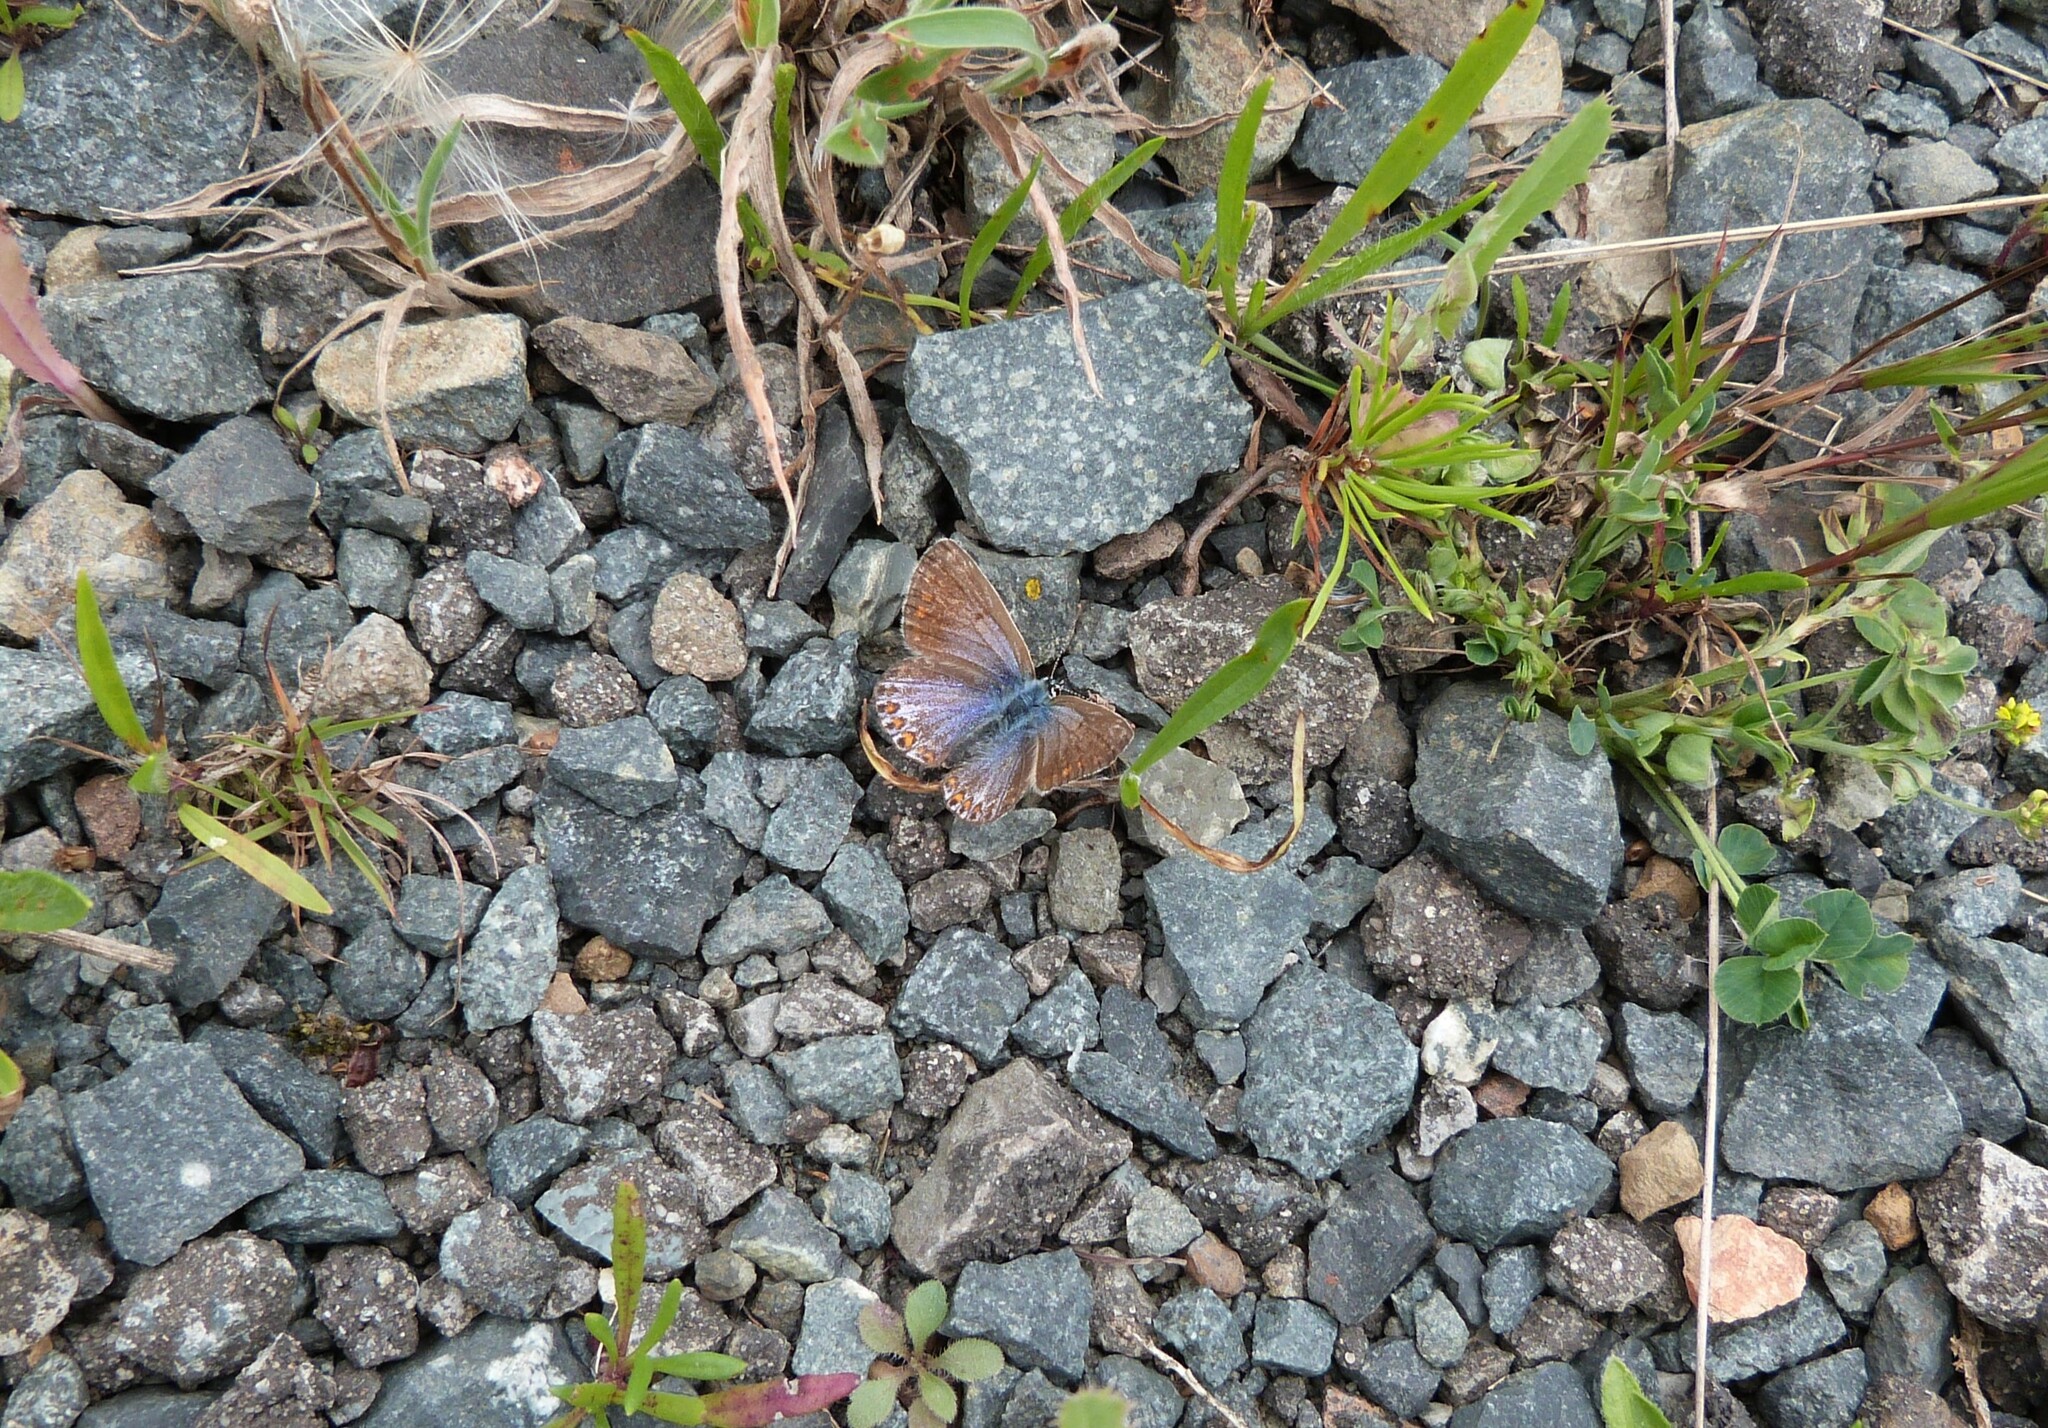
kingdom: Animalia
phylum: Arthropoda
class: Insecta
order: Lepidoptera
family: Lycaenidae
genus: Polyommatus
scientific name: Polyommatus icarus
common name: Common blue
